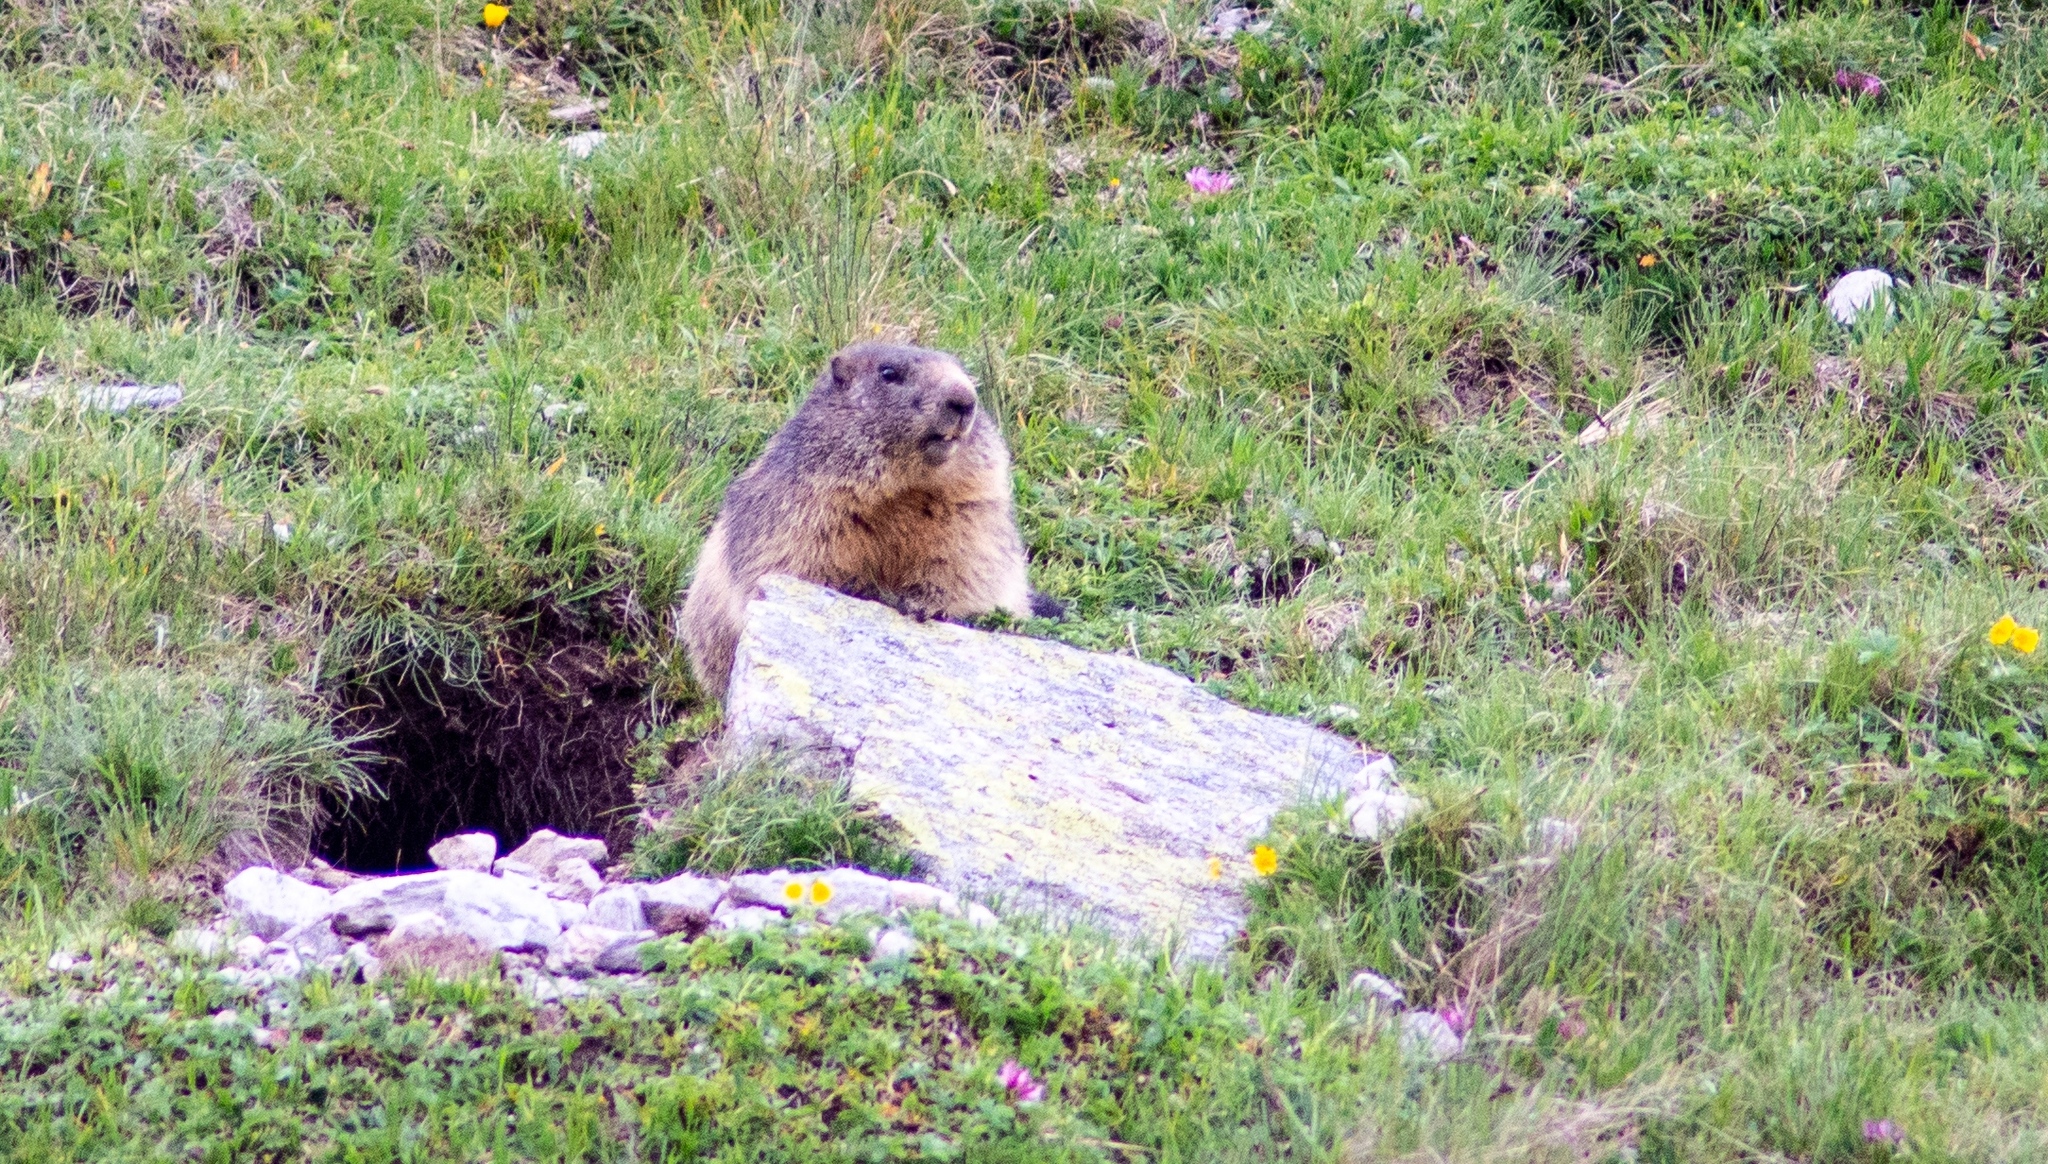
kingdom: Animalia
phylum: Chordata
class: Mammalia
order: Rodentia
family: Sciuridae
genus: Marmota
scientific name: Marmota marmota
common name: Alpine marmot
